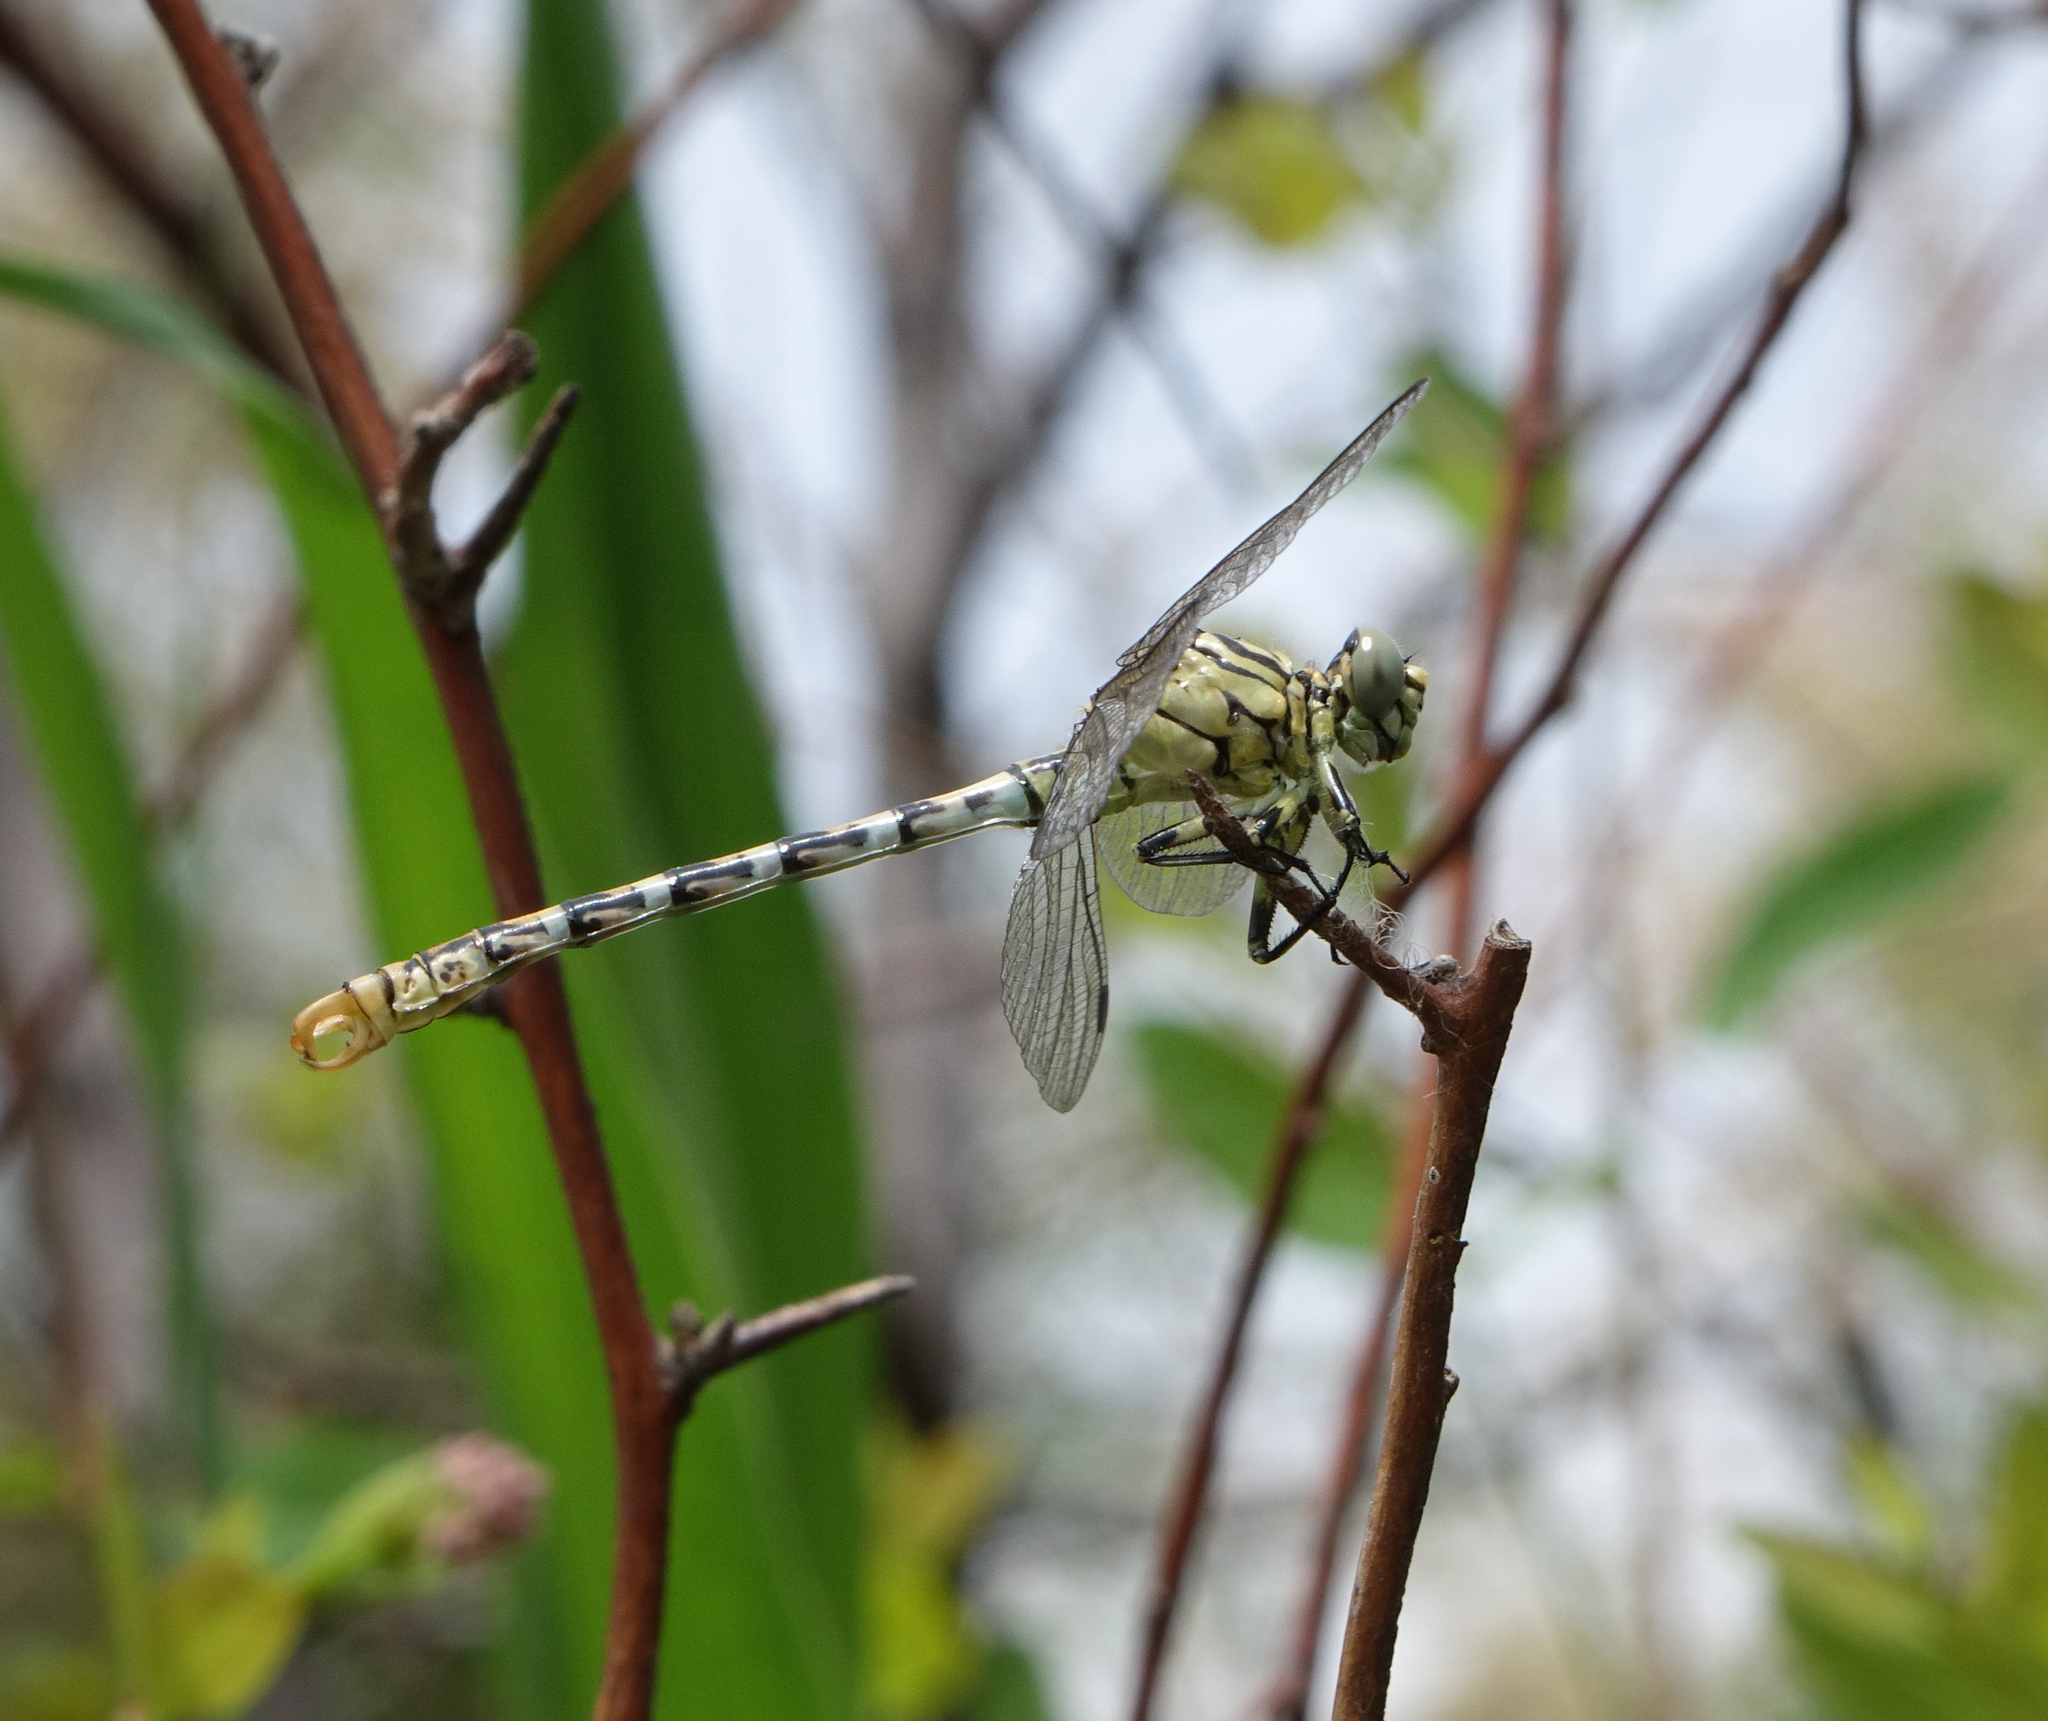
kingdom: Animalia
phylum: Arthropoda
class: Insecta
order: Odonata
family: Gomphidae
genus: Onychogomphus
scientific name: Onychogomphus forcipatus
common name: Small pincertail
